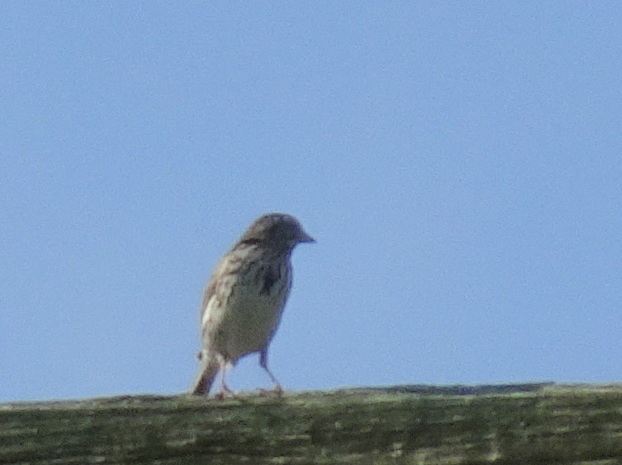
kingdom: Animalia
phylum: Chordata
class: Aves
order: Passeriformes
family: Passerellidae
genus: Passerculus
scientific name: Passerculus sandwichensis
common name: Savannah sparrow
